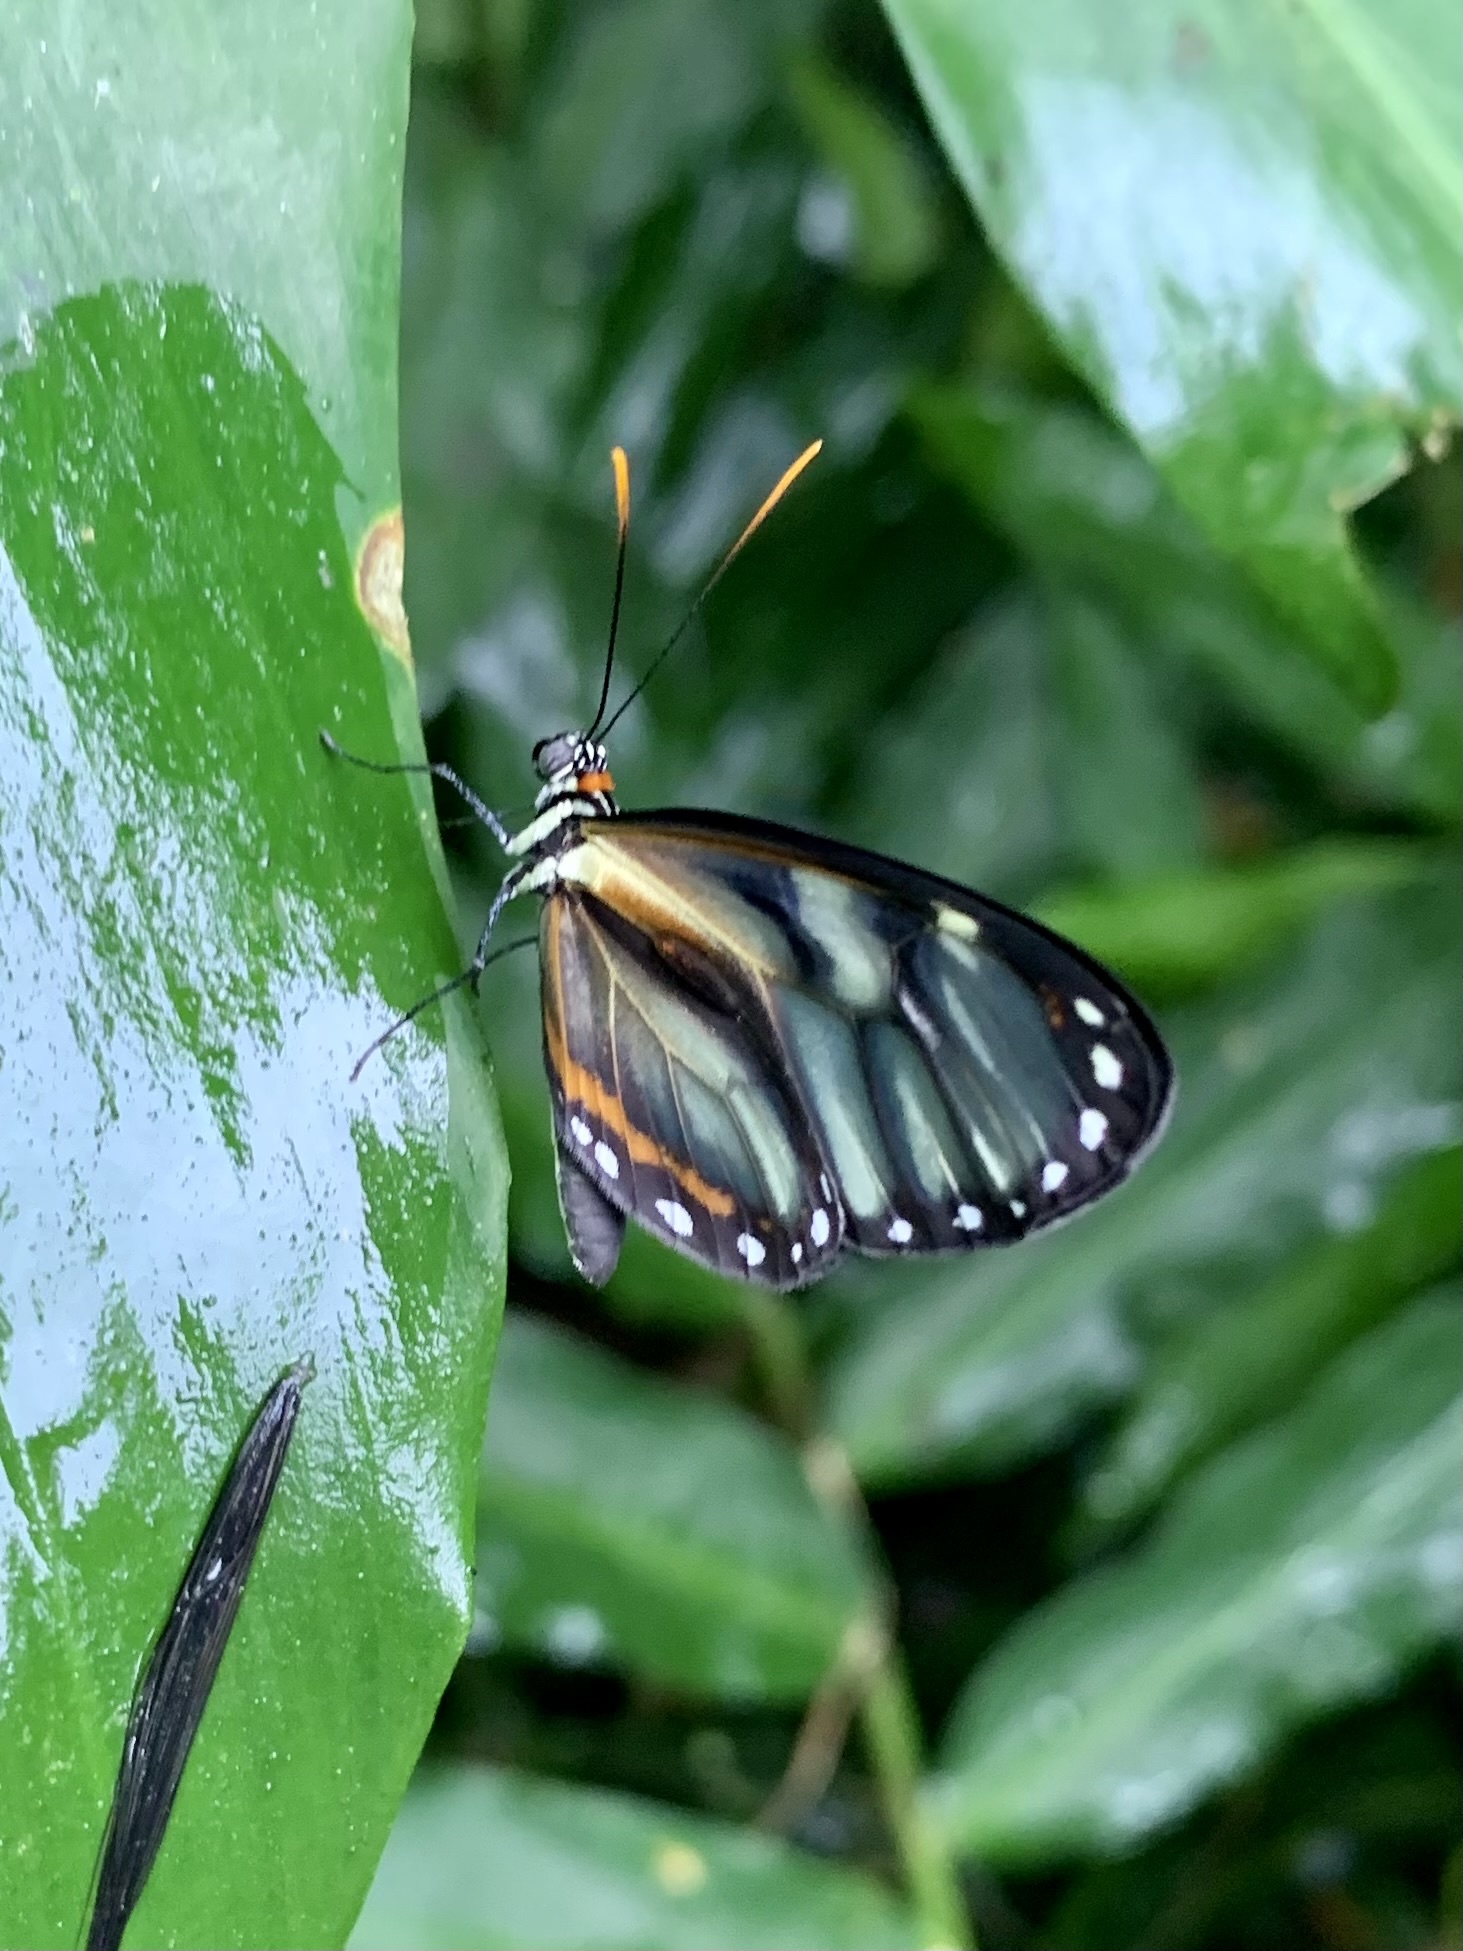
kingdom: Animalia
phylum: Arthropoda
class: Insecta
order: Lepidoptera
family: Nymphalidae
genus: Ithomia
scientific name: Ithomia
